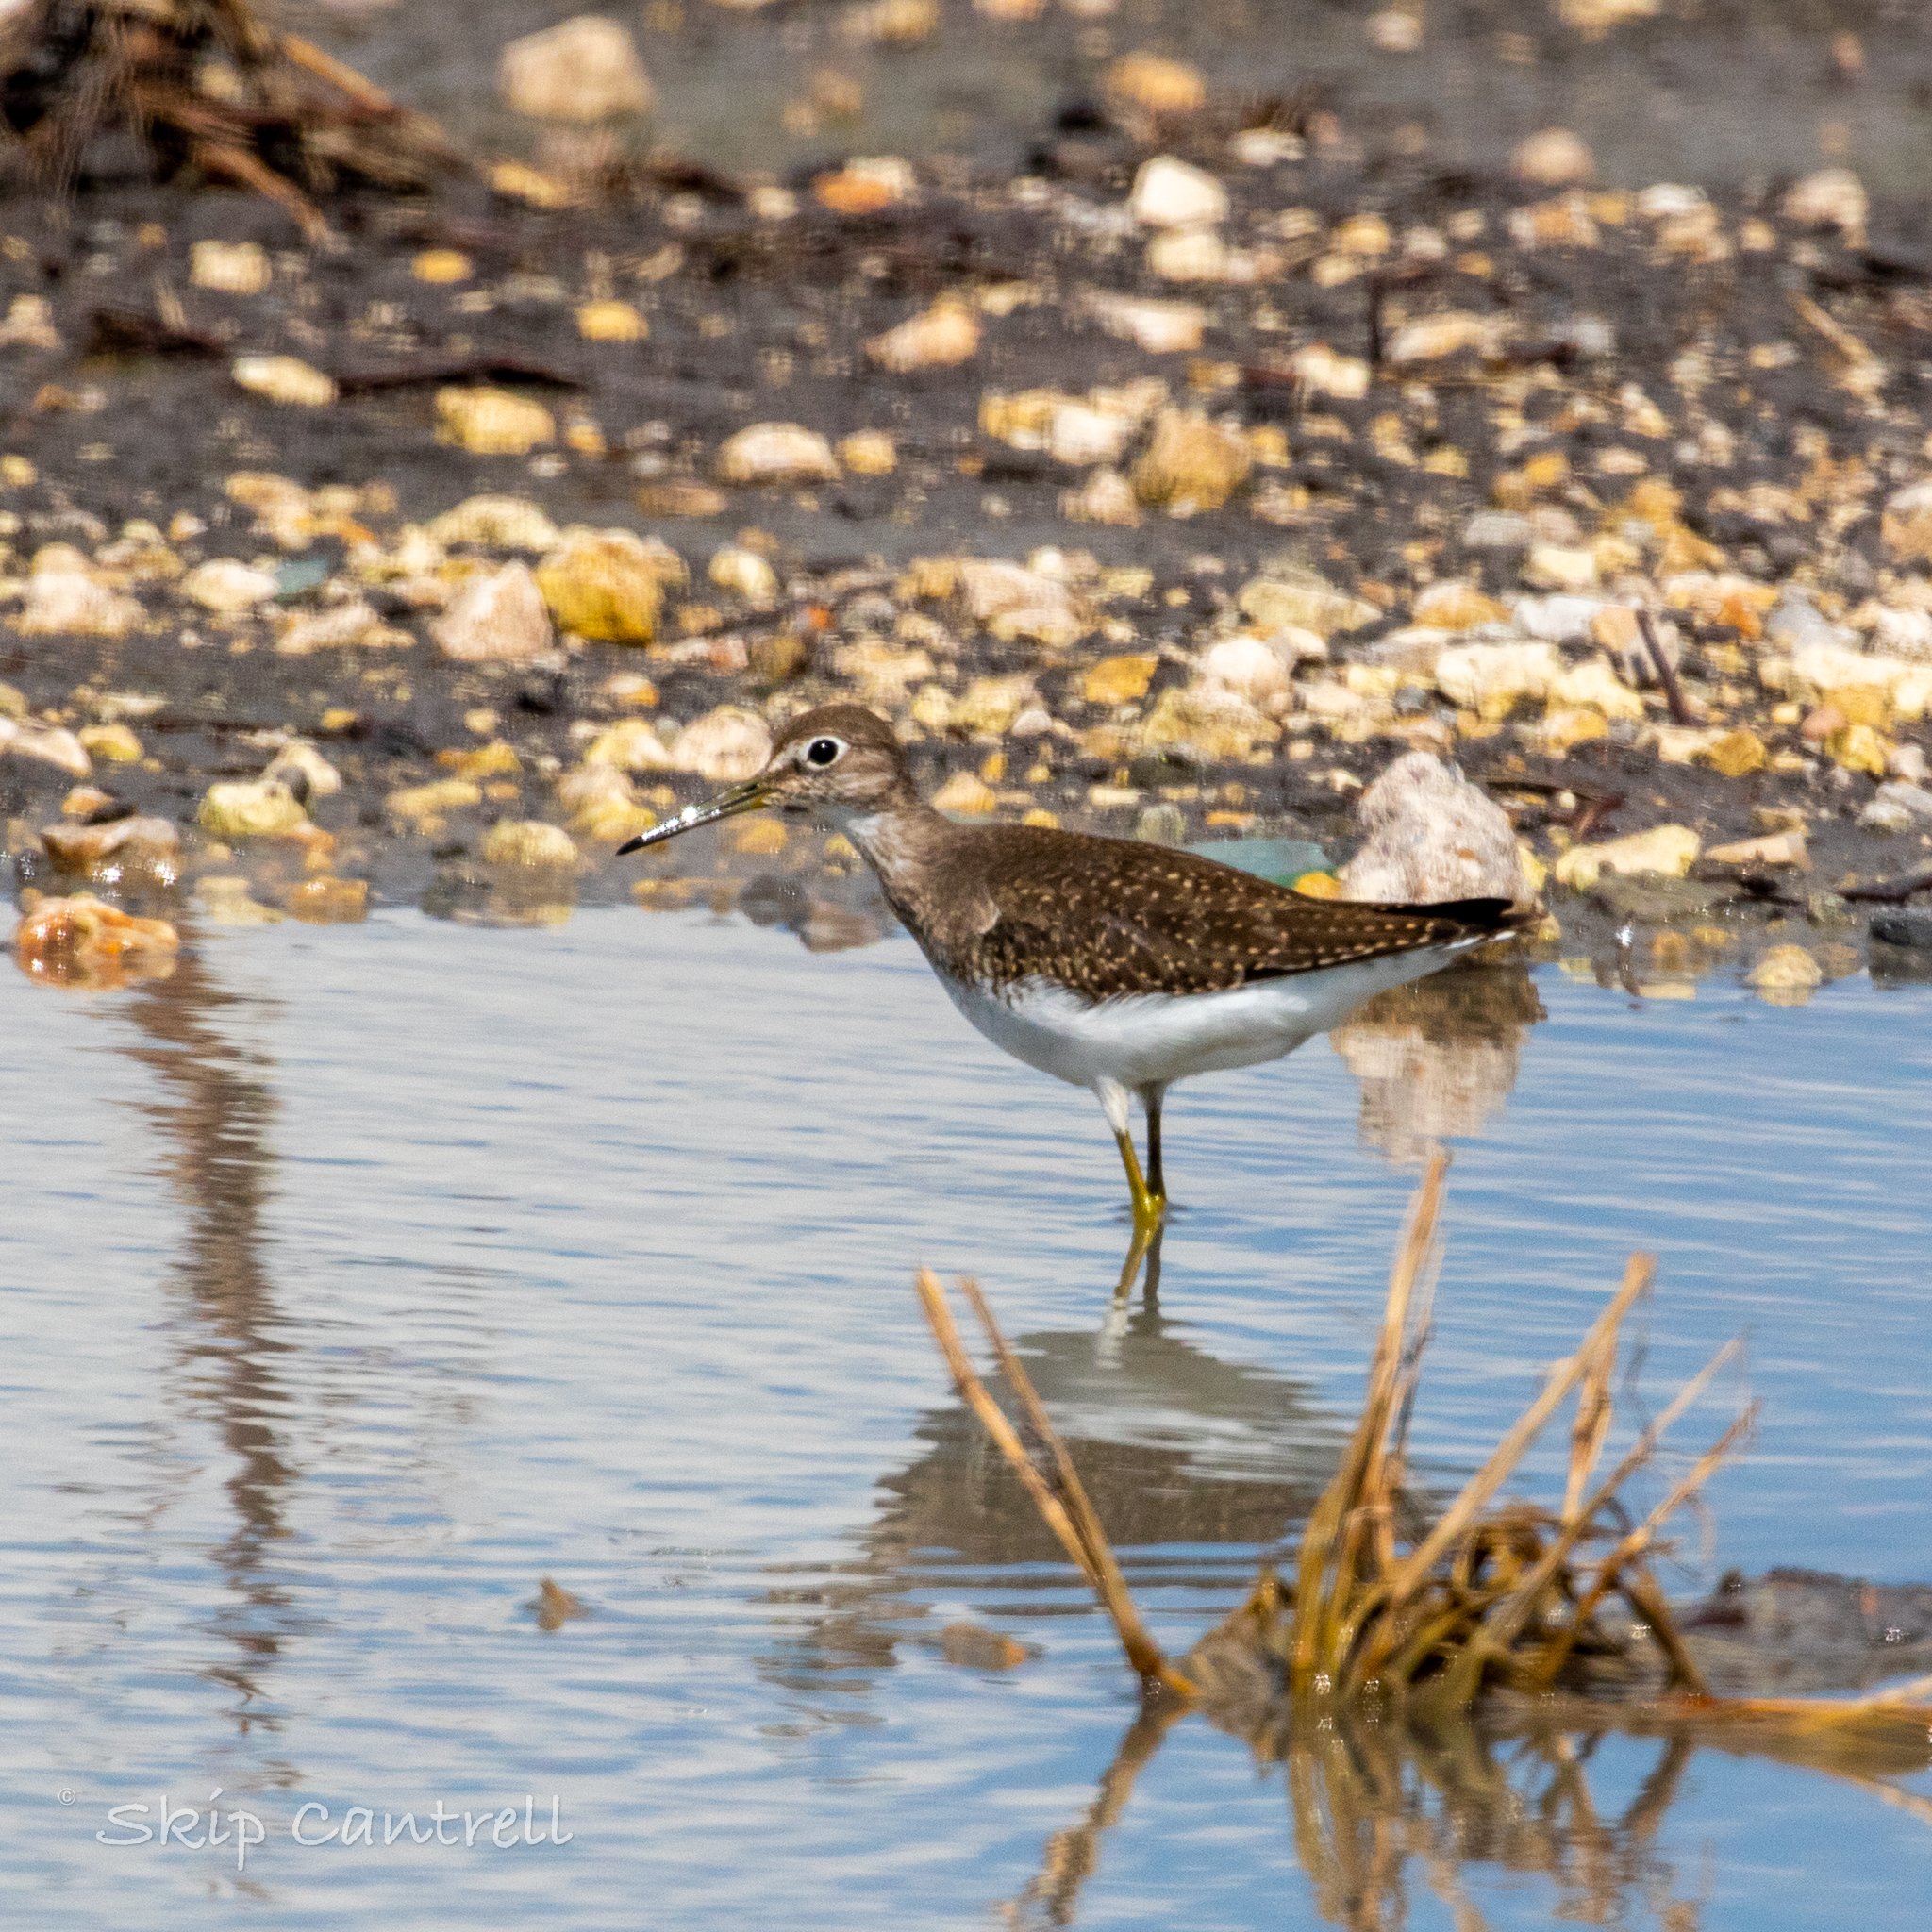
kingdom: Animalia
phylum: Chordata
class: Aves
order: Charadriiformes
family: Scolopacidae
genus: Tringa
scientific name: Tringa solitaria
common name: Solitary sandpiper
